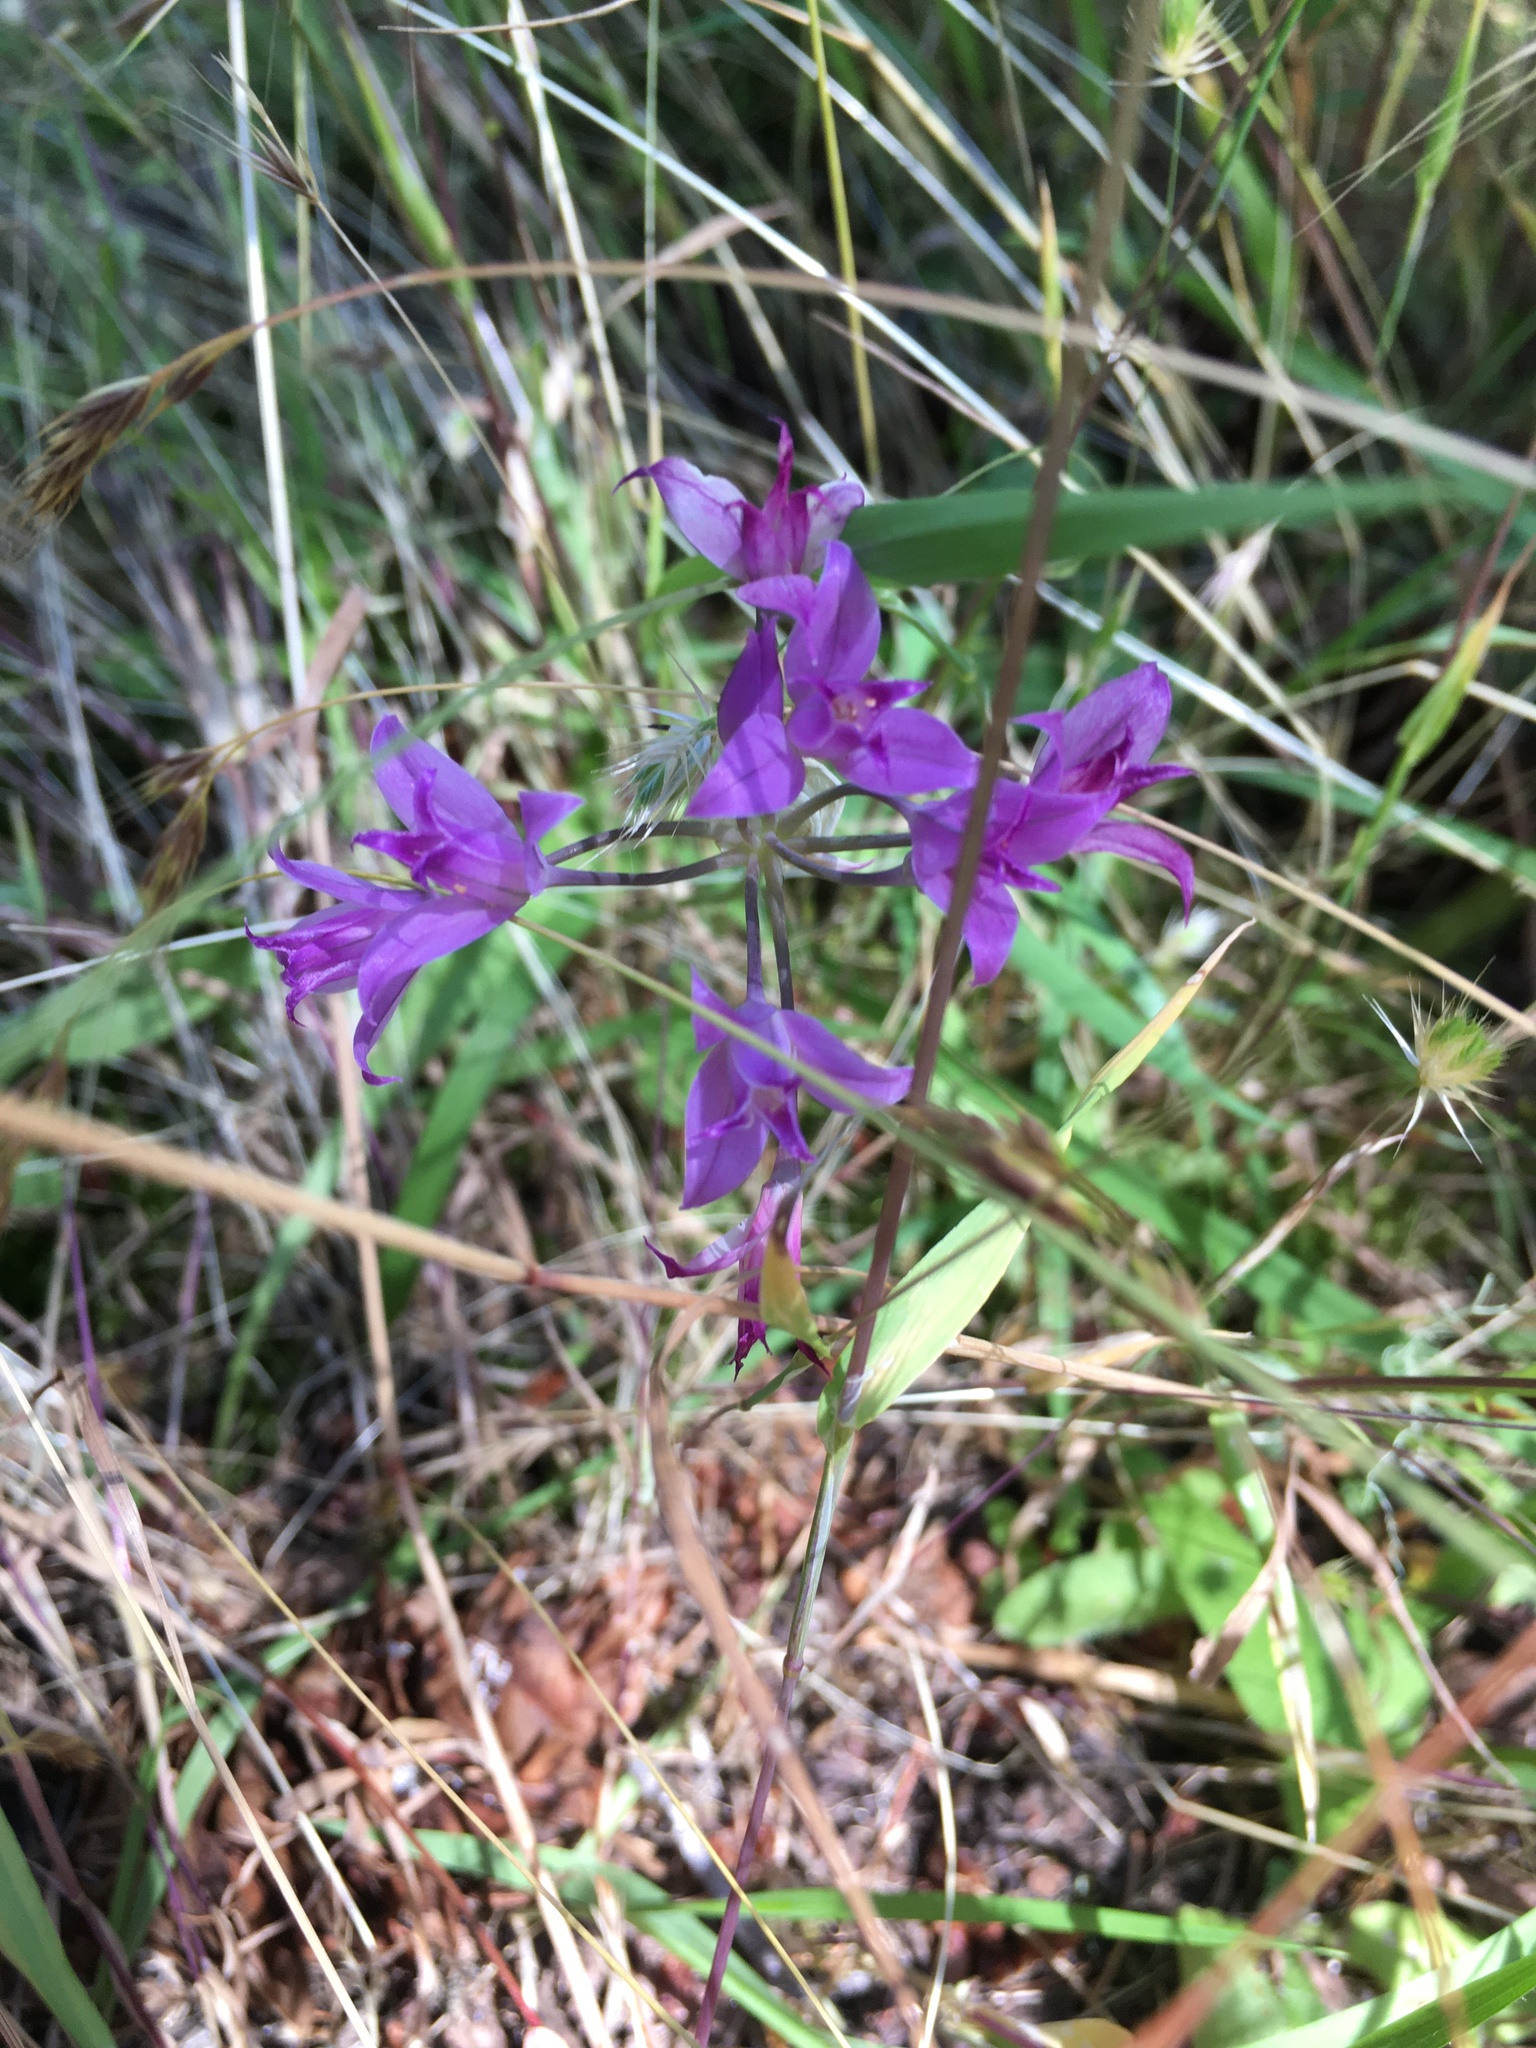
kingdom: Plantae
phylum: Tracheophyta
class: Liliopsida
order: Asparagales
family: Amaryllidaceae
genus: Allium
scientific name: Allium acuminatum
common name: Hooker's onion
